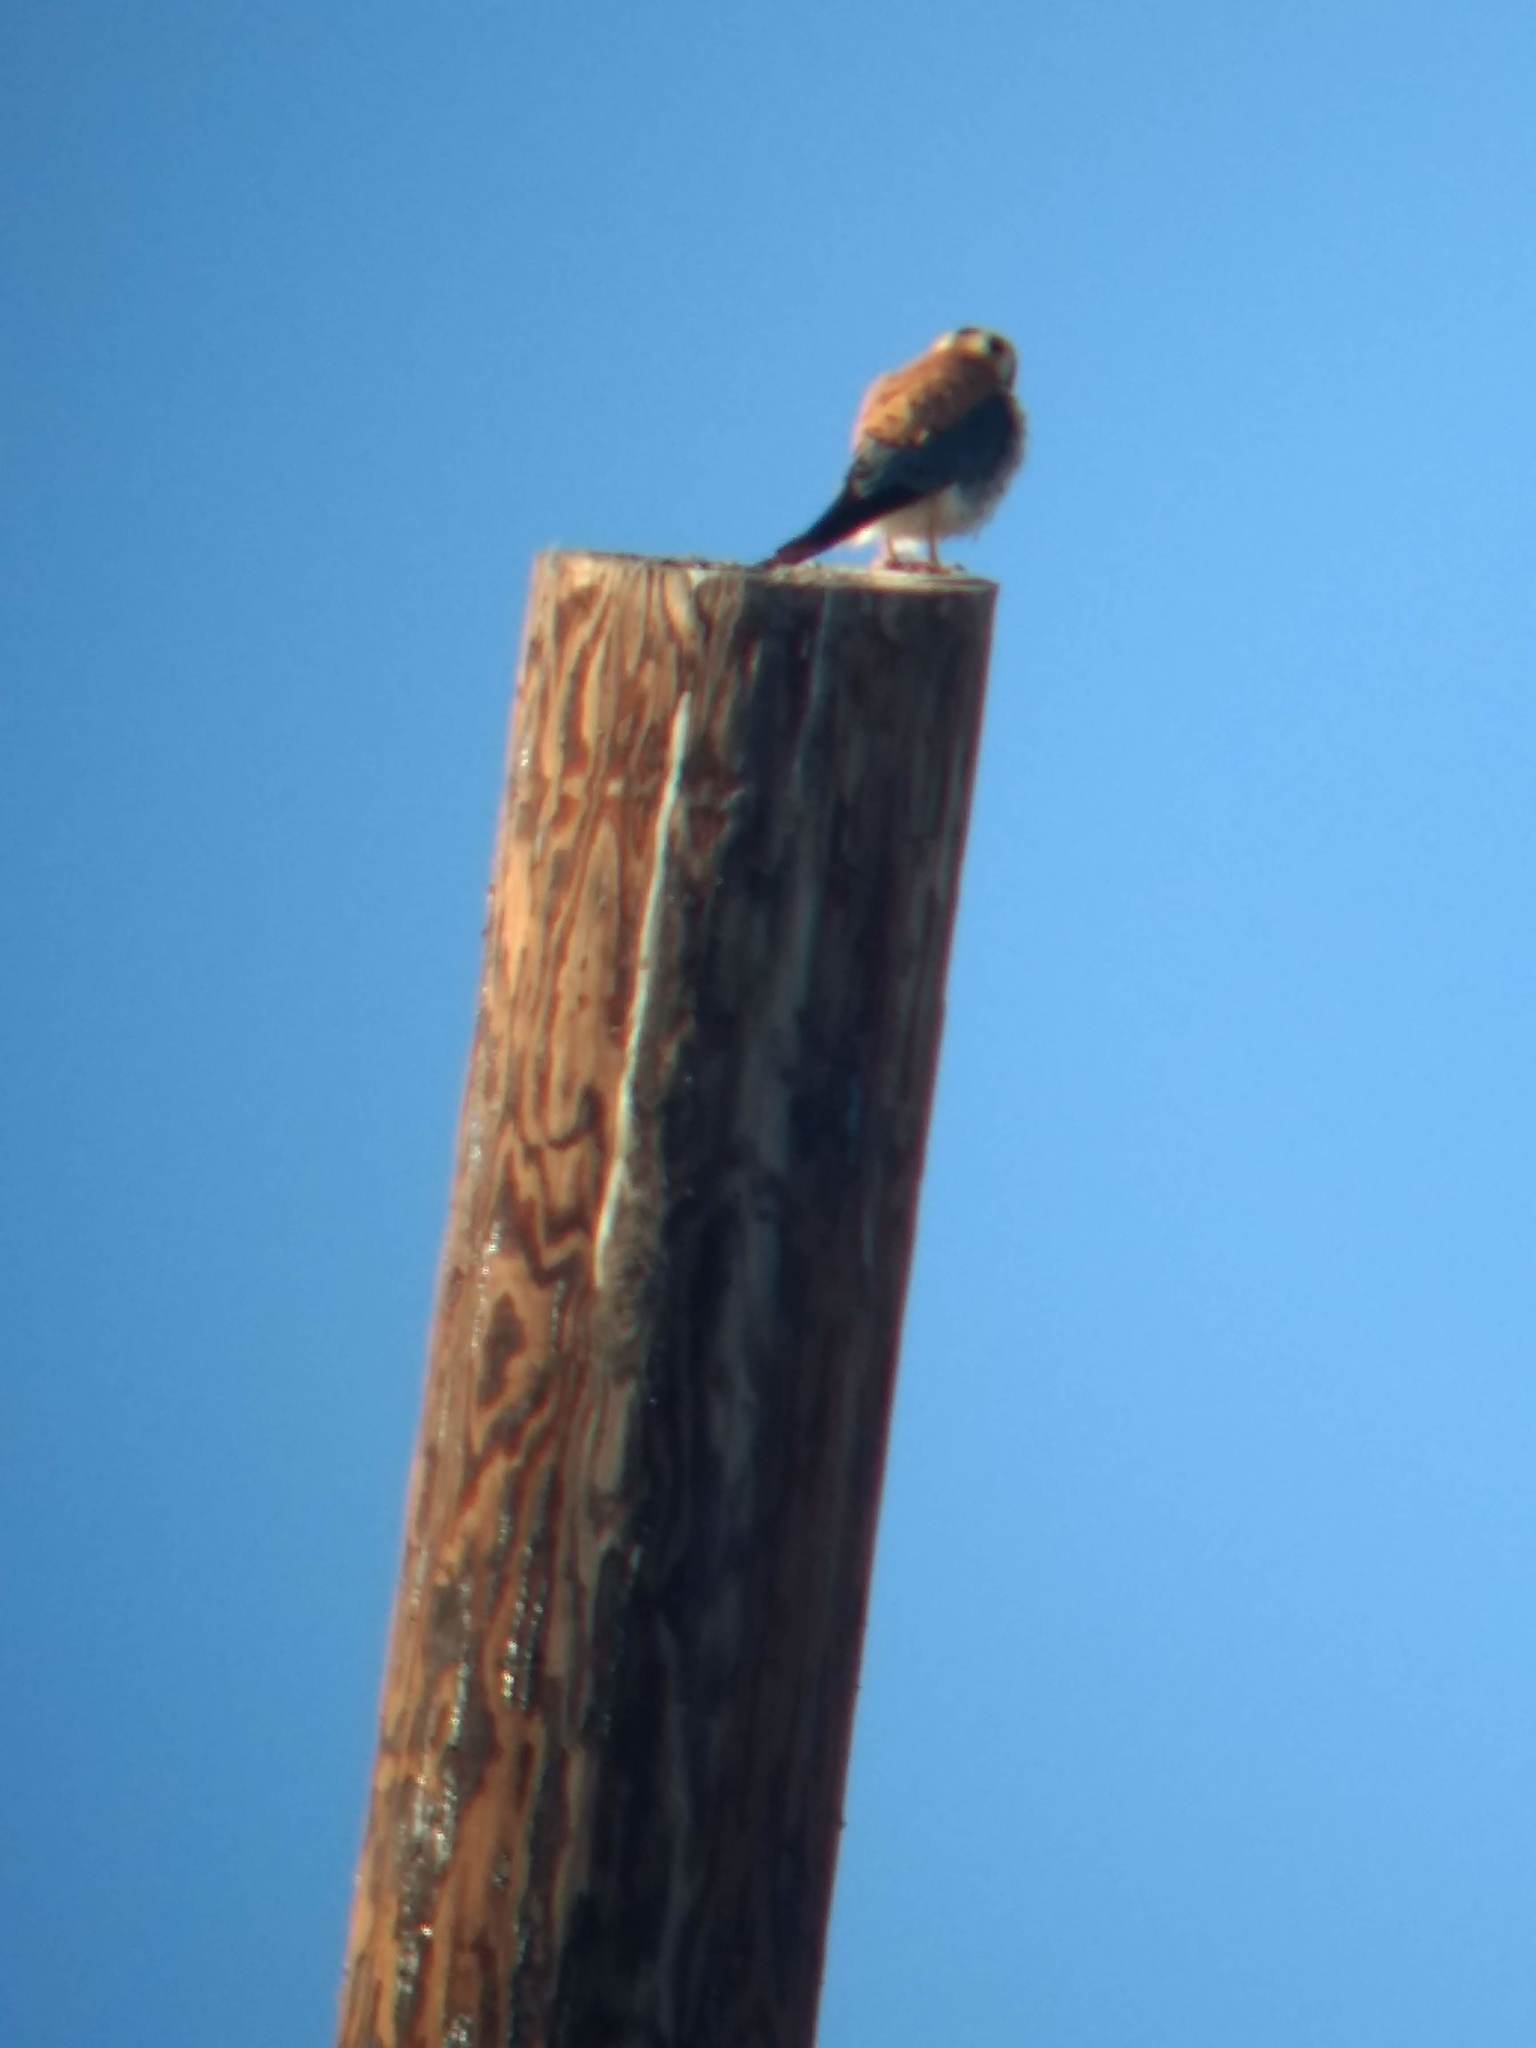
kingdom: Animalia
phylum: Chordata
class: Aves
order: Falconiformes
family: Falconidae
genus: Falco
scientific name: Falco sparverius
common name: American kestrel
